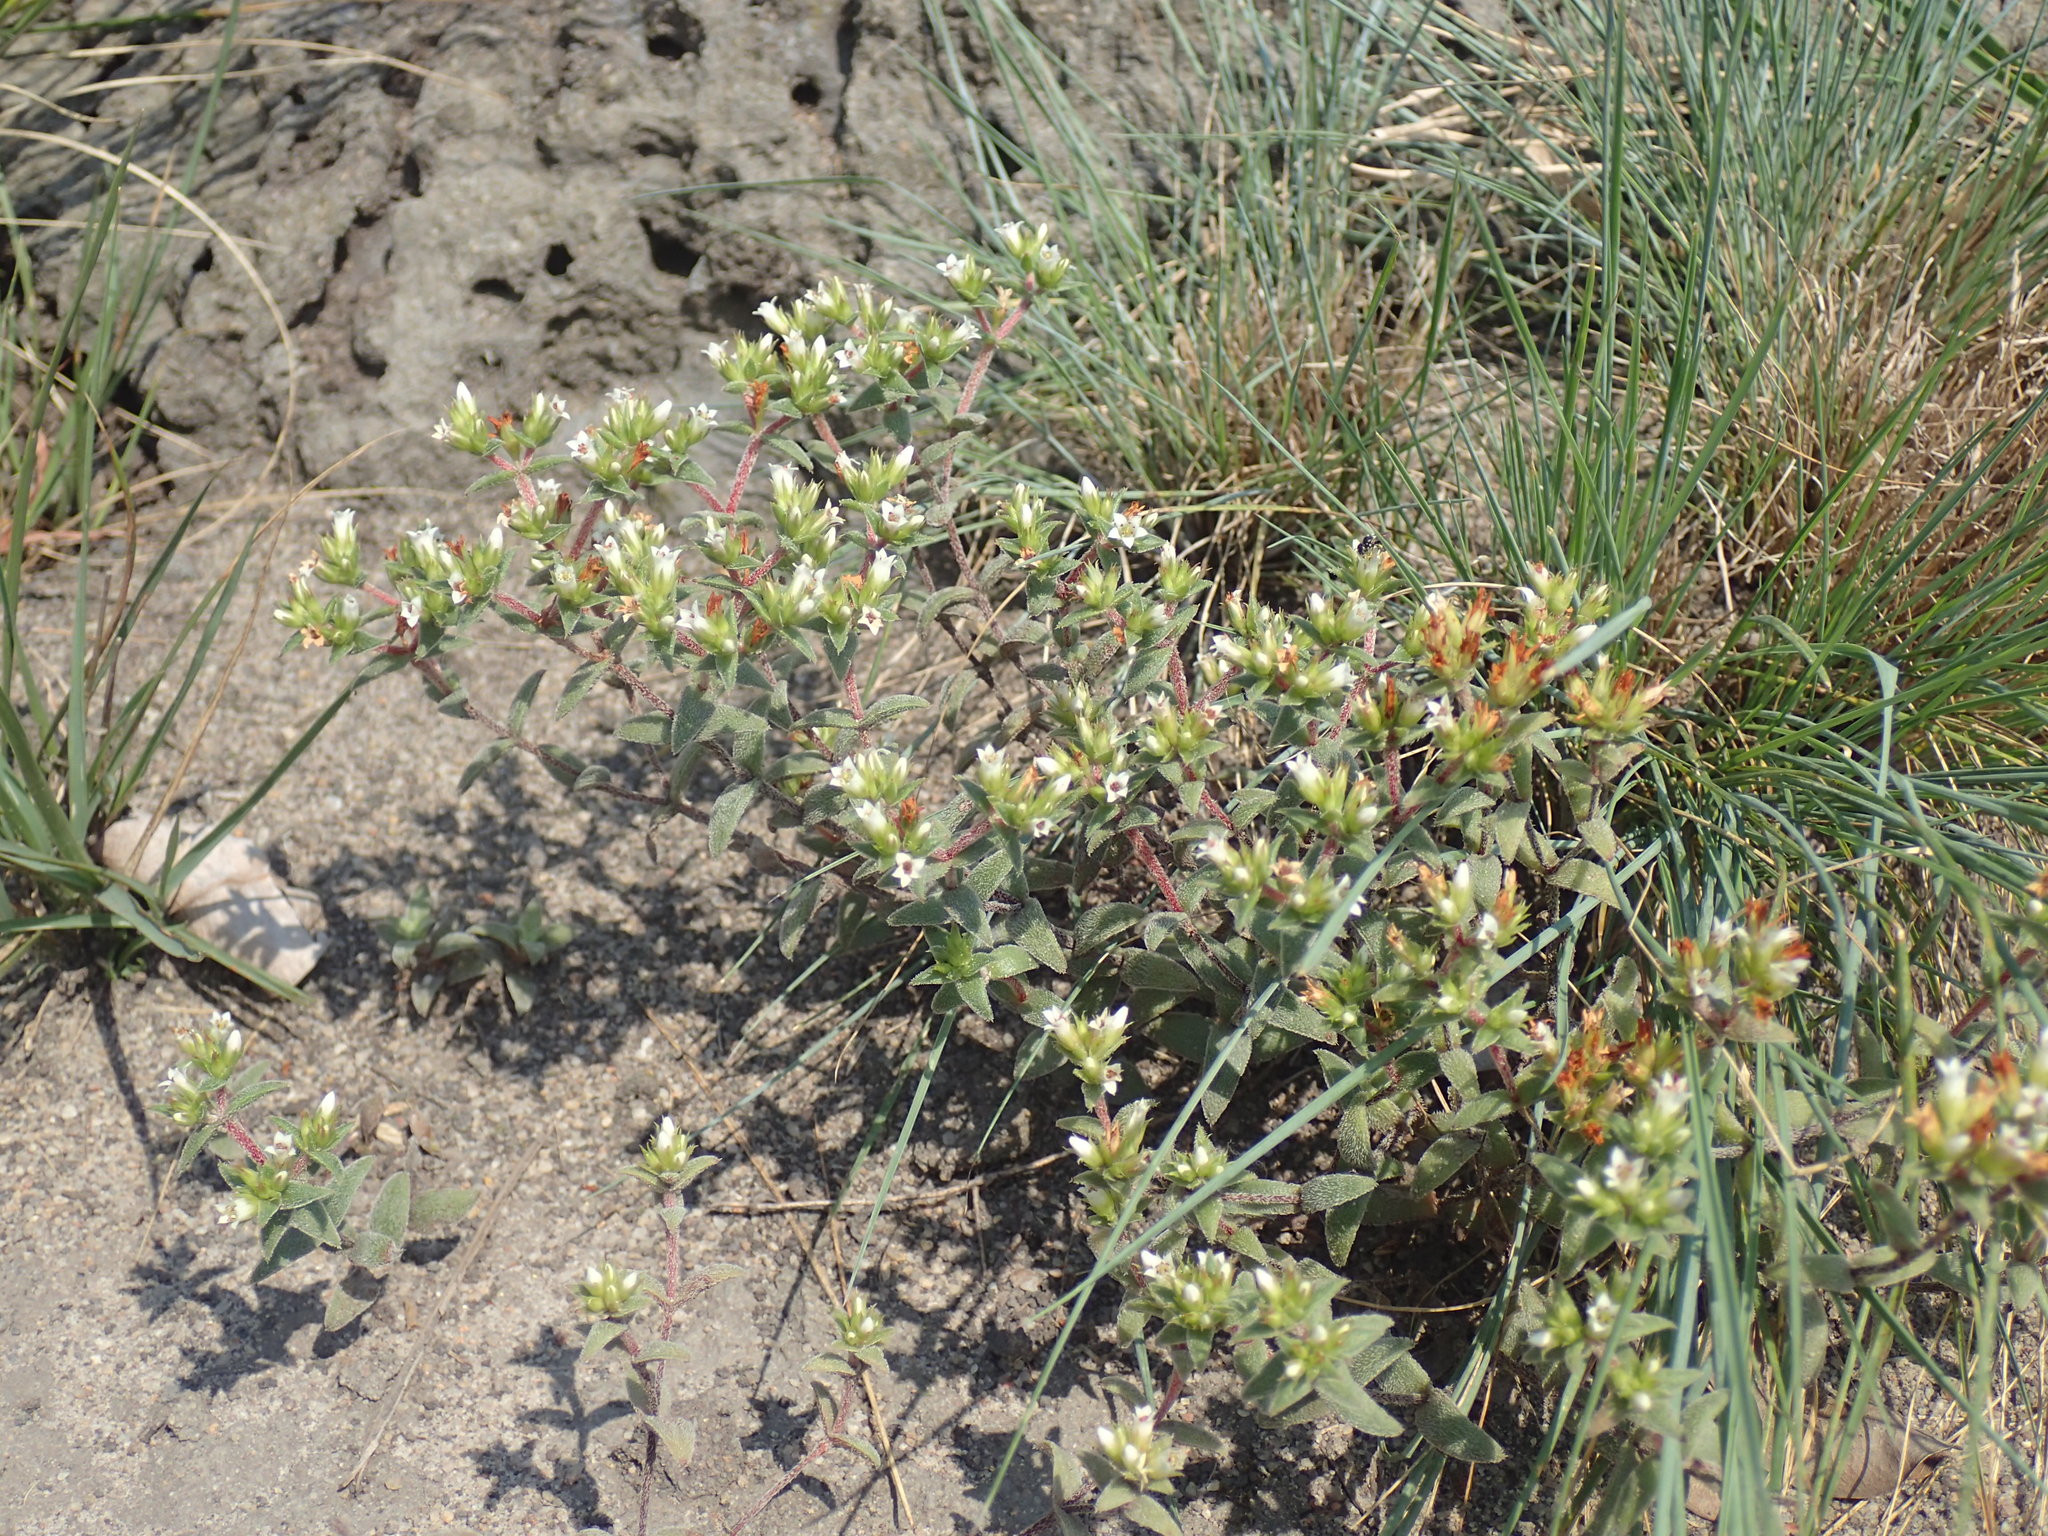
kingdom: Plantae
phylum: Tracheophyta
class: Magnoliopsida
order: Saxifragales
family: Crassulaceae
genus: Crassula
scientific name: Crassula obovata
